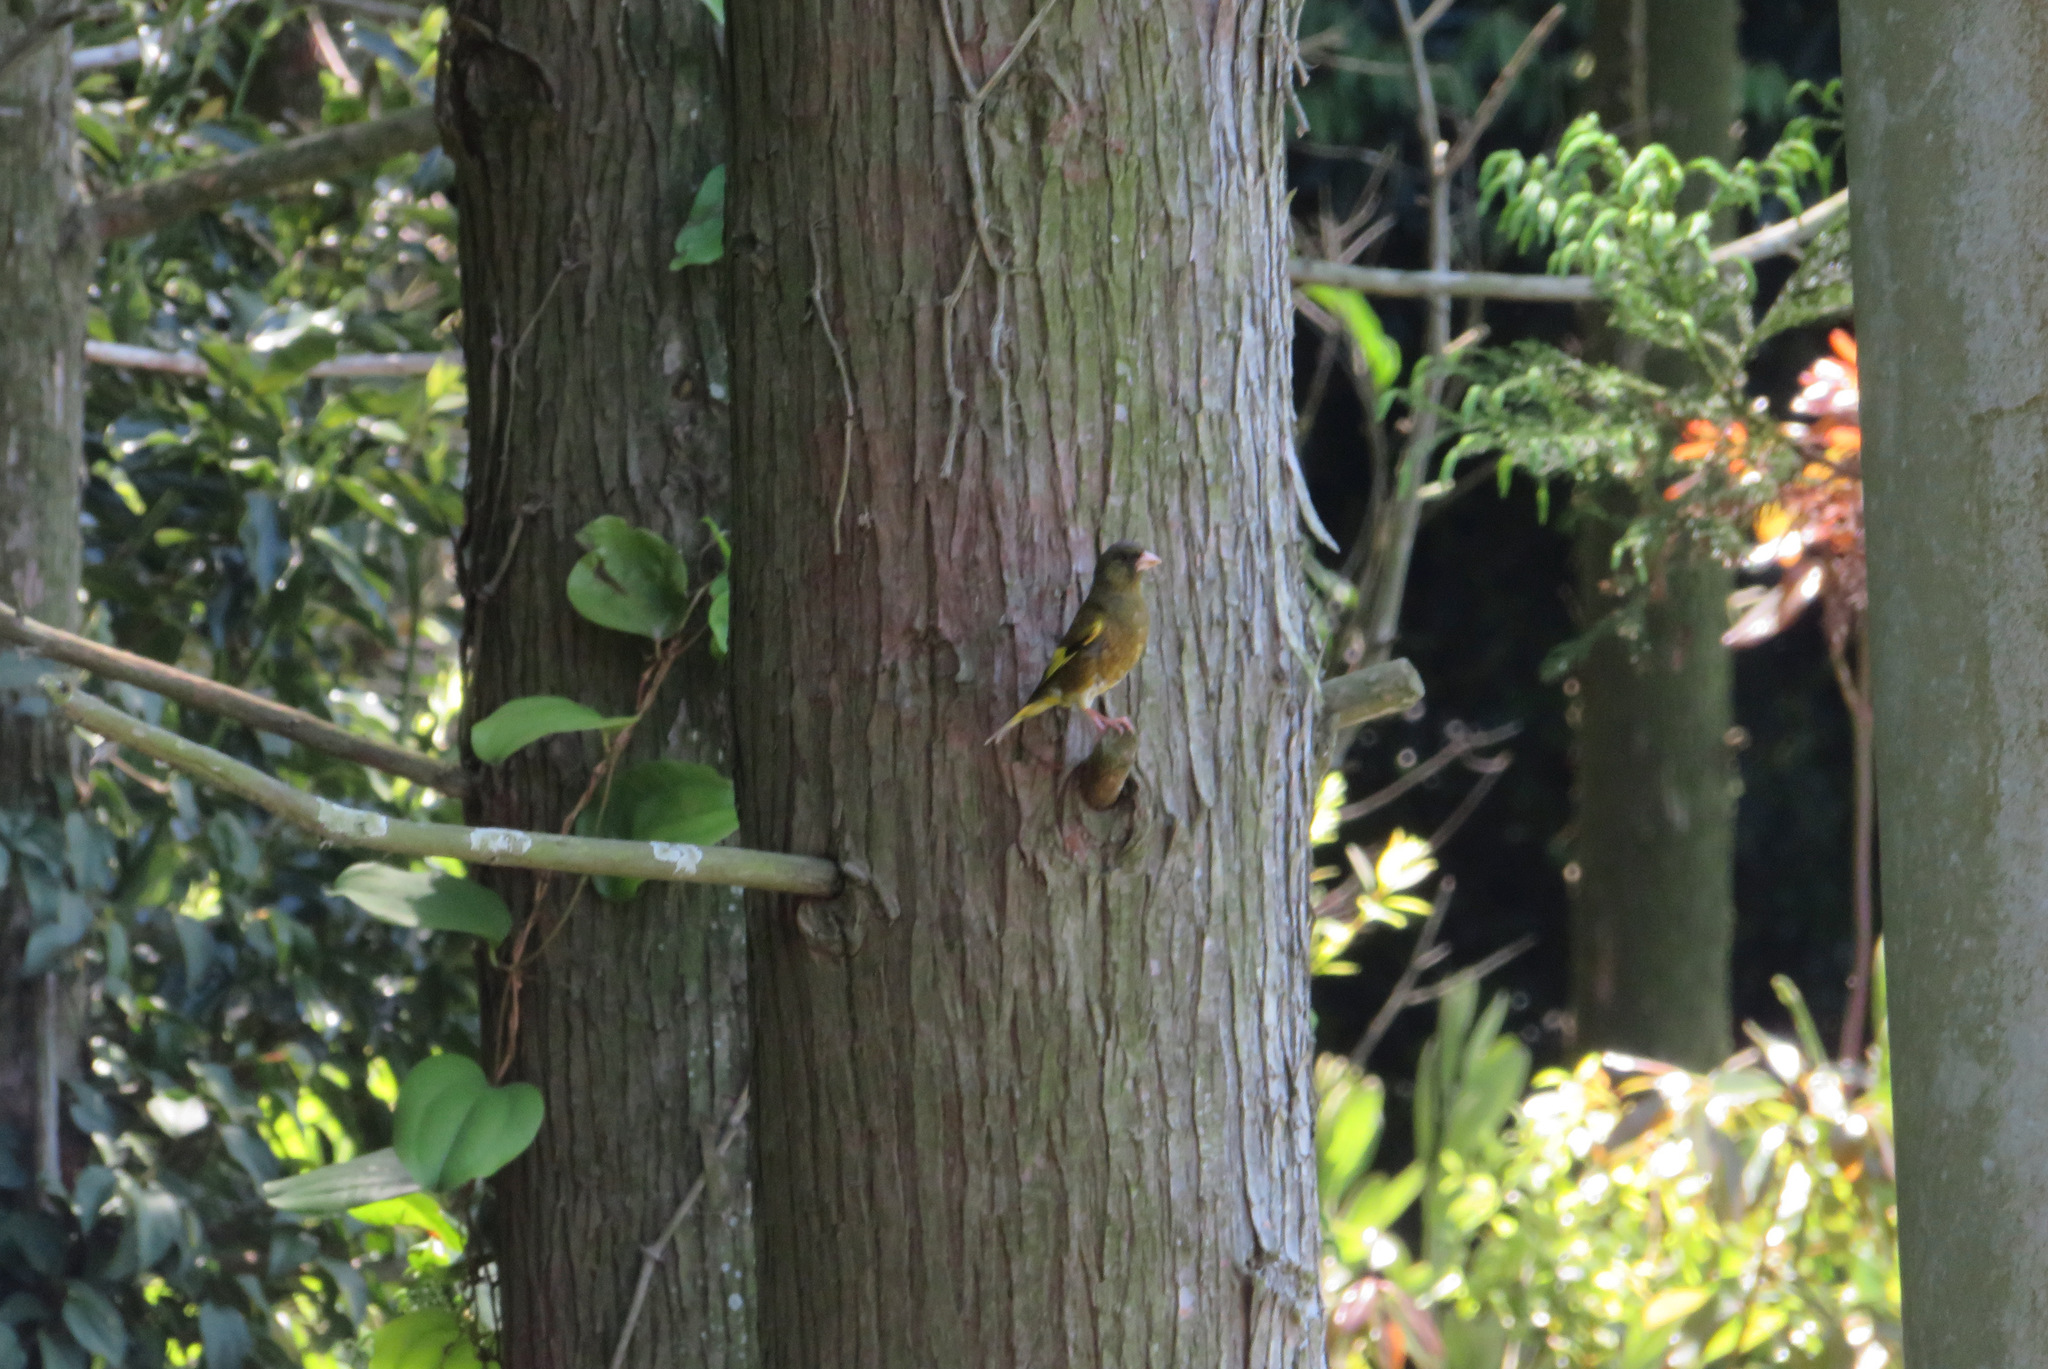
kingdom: Plantae
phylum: Tracheophyta
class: Liliopsida
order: Poales
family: Poaceae
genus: Chloris
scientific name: Chloris sinica
